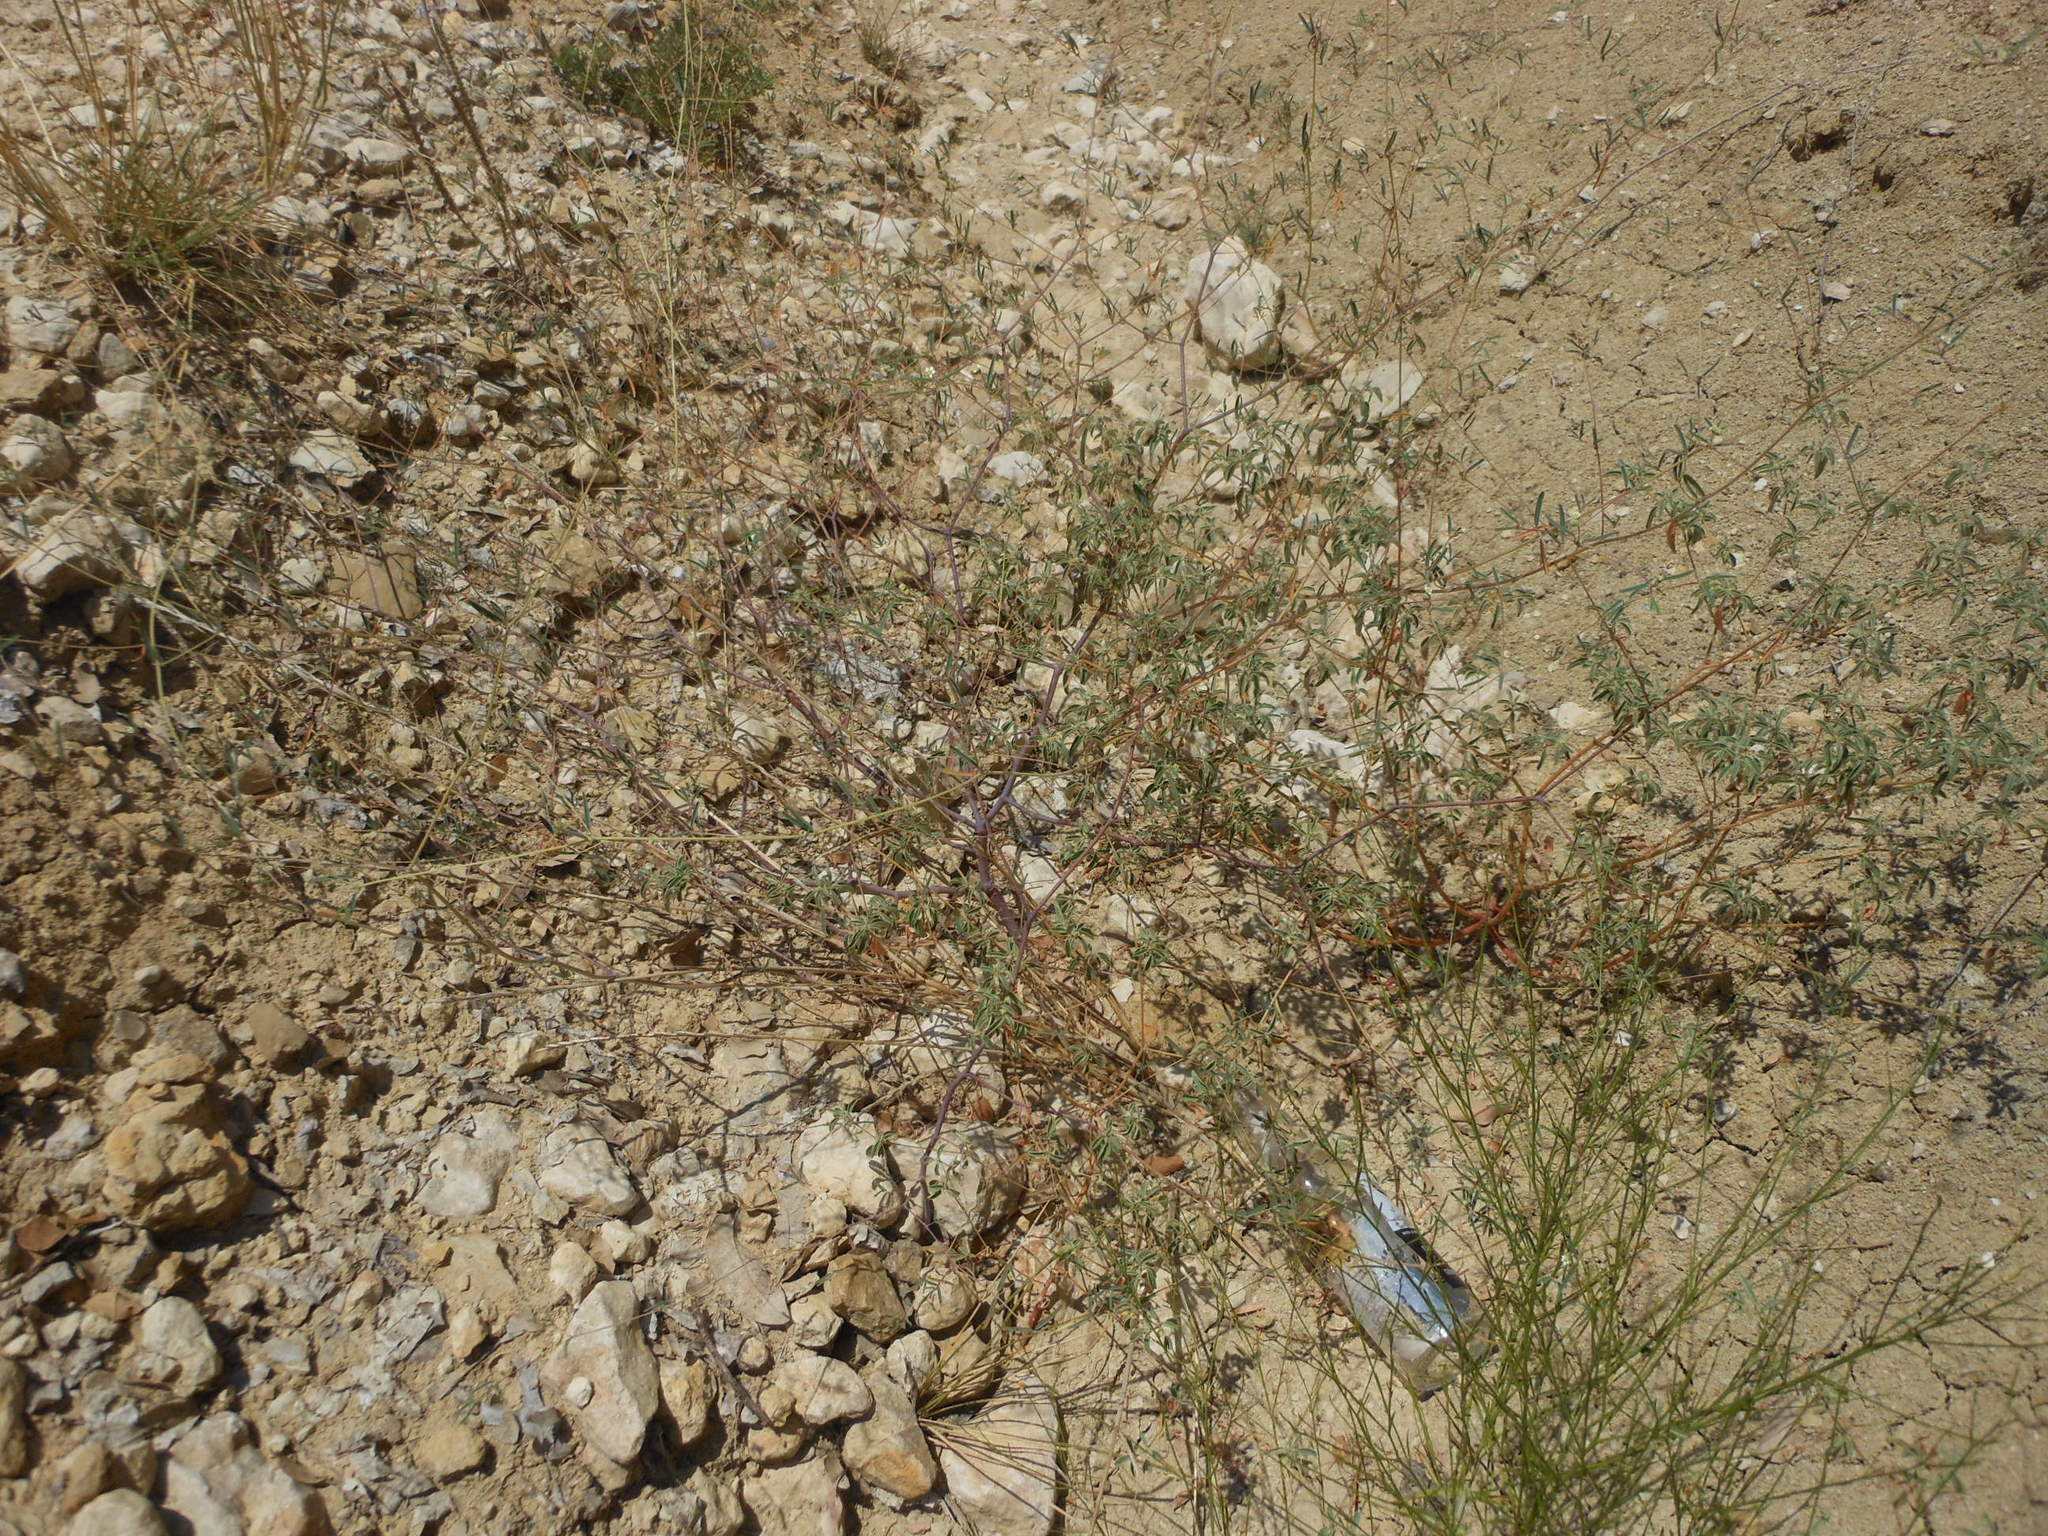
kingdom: Plantae
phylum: Tracheophyta
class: Magnoliopsida
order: Malpighiales
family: Euphorbiaceae
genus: Euphorbia
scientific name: Euphorbia missurica
